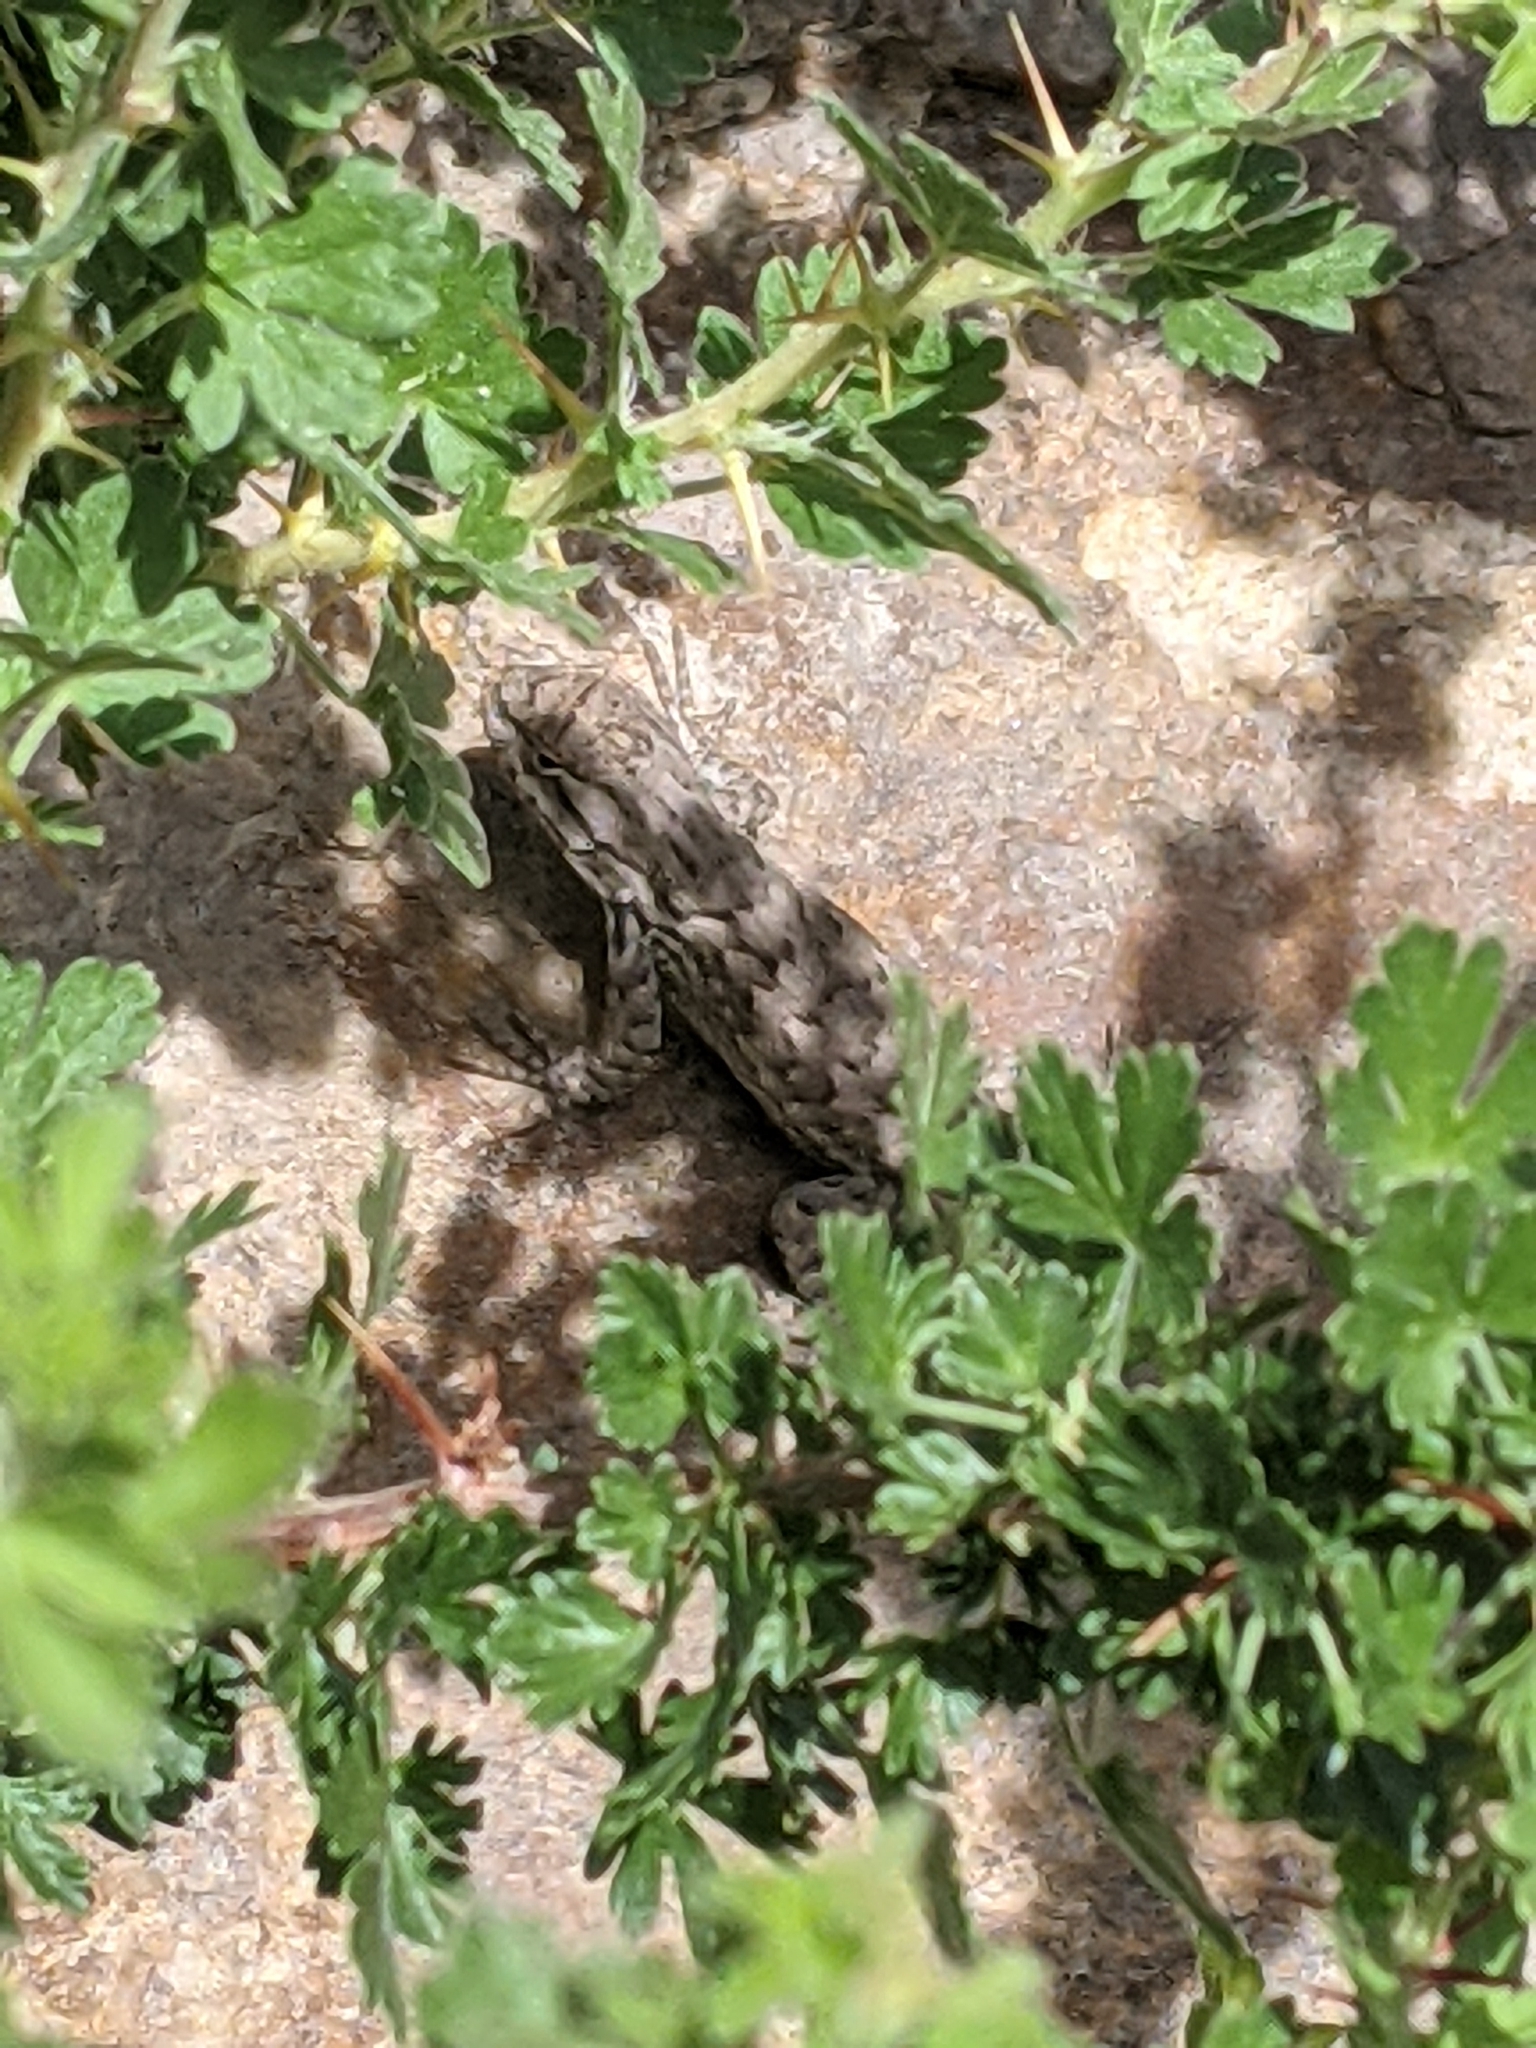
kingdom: Animalia
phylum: Chordata
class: Squamata
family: Phrynosomatidae
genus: Sceloporus
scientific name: Sceloporus tristichus
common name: Plateau fence lizard
